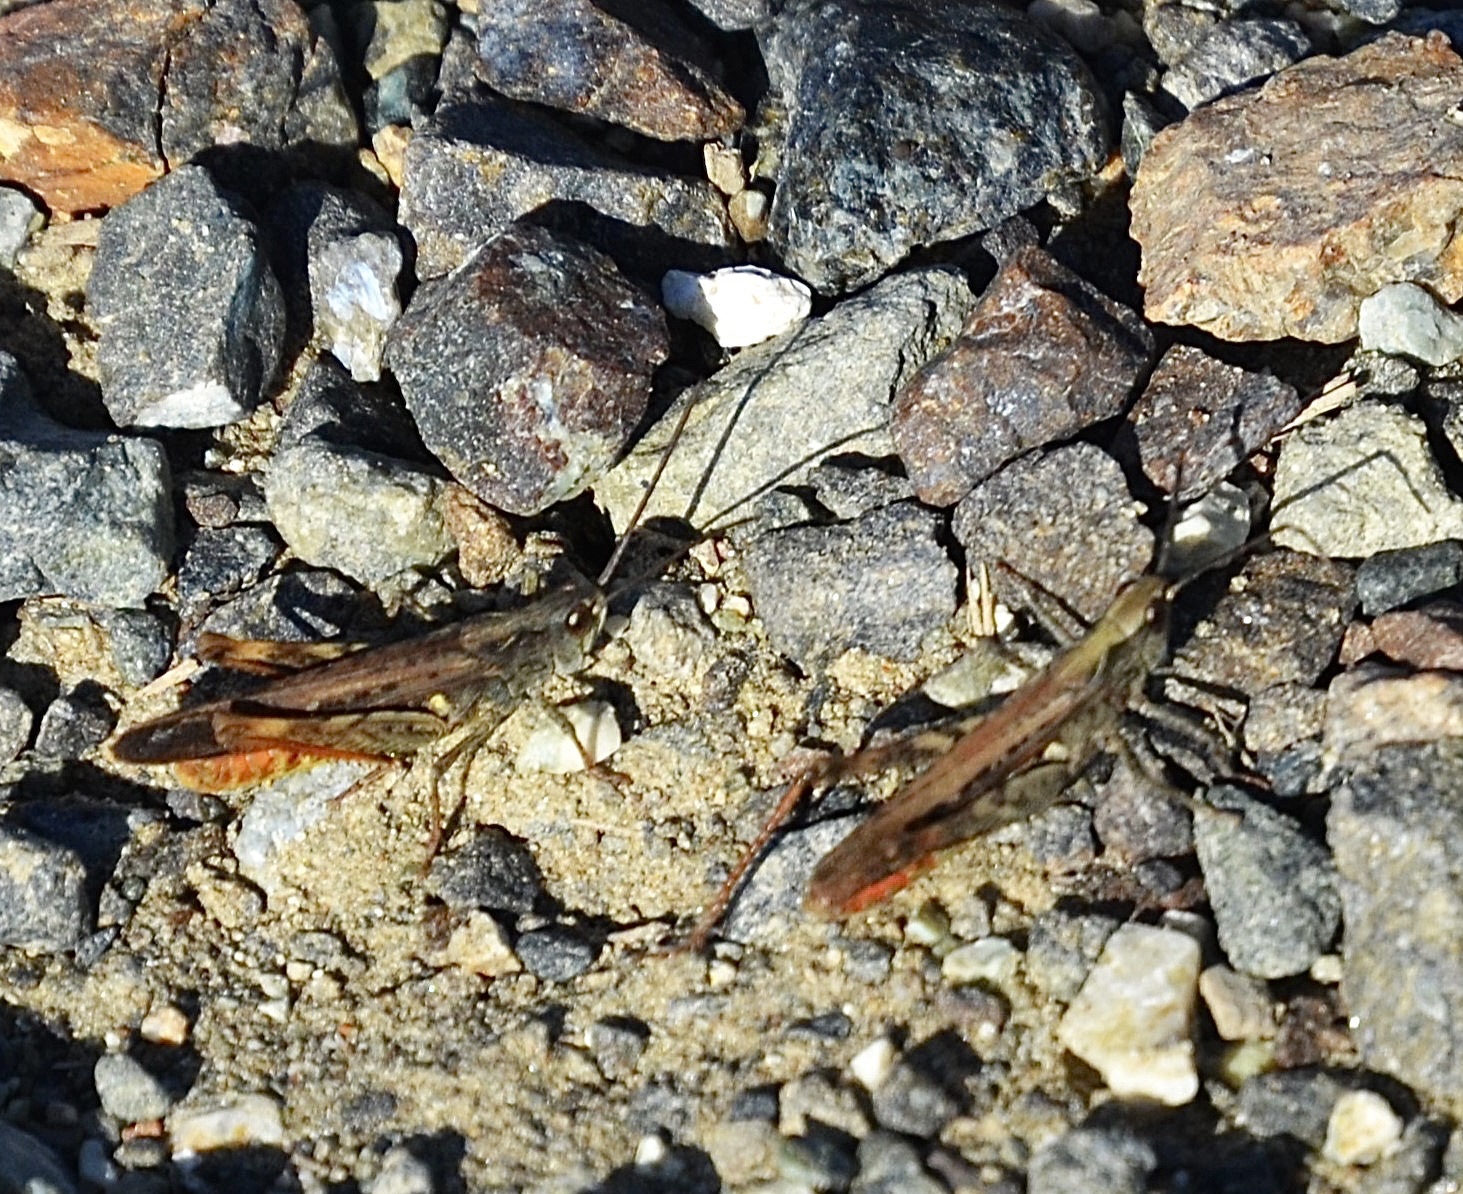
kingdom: Animalia
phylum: Arthropoda
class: Insecta
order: Orthoptera
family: Acrididae
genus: Chorthippus
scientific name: Chorthippus brunneus
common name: Field grasshopper
